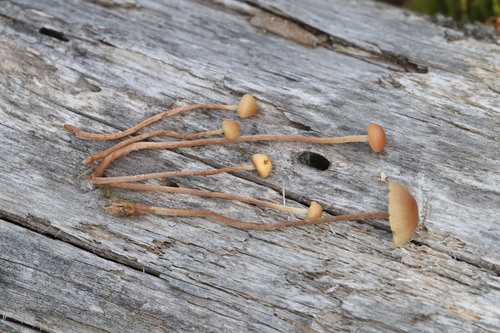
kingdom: Fungi
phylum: Basidiomycota
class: Agaricomycetes
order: Agaricales
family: Strophariaceae
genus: Bogbodia
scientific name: Bogbodia uda
